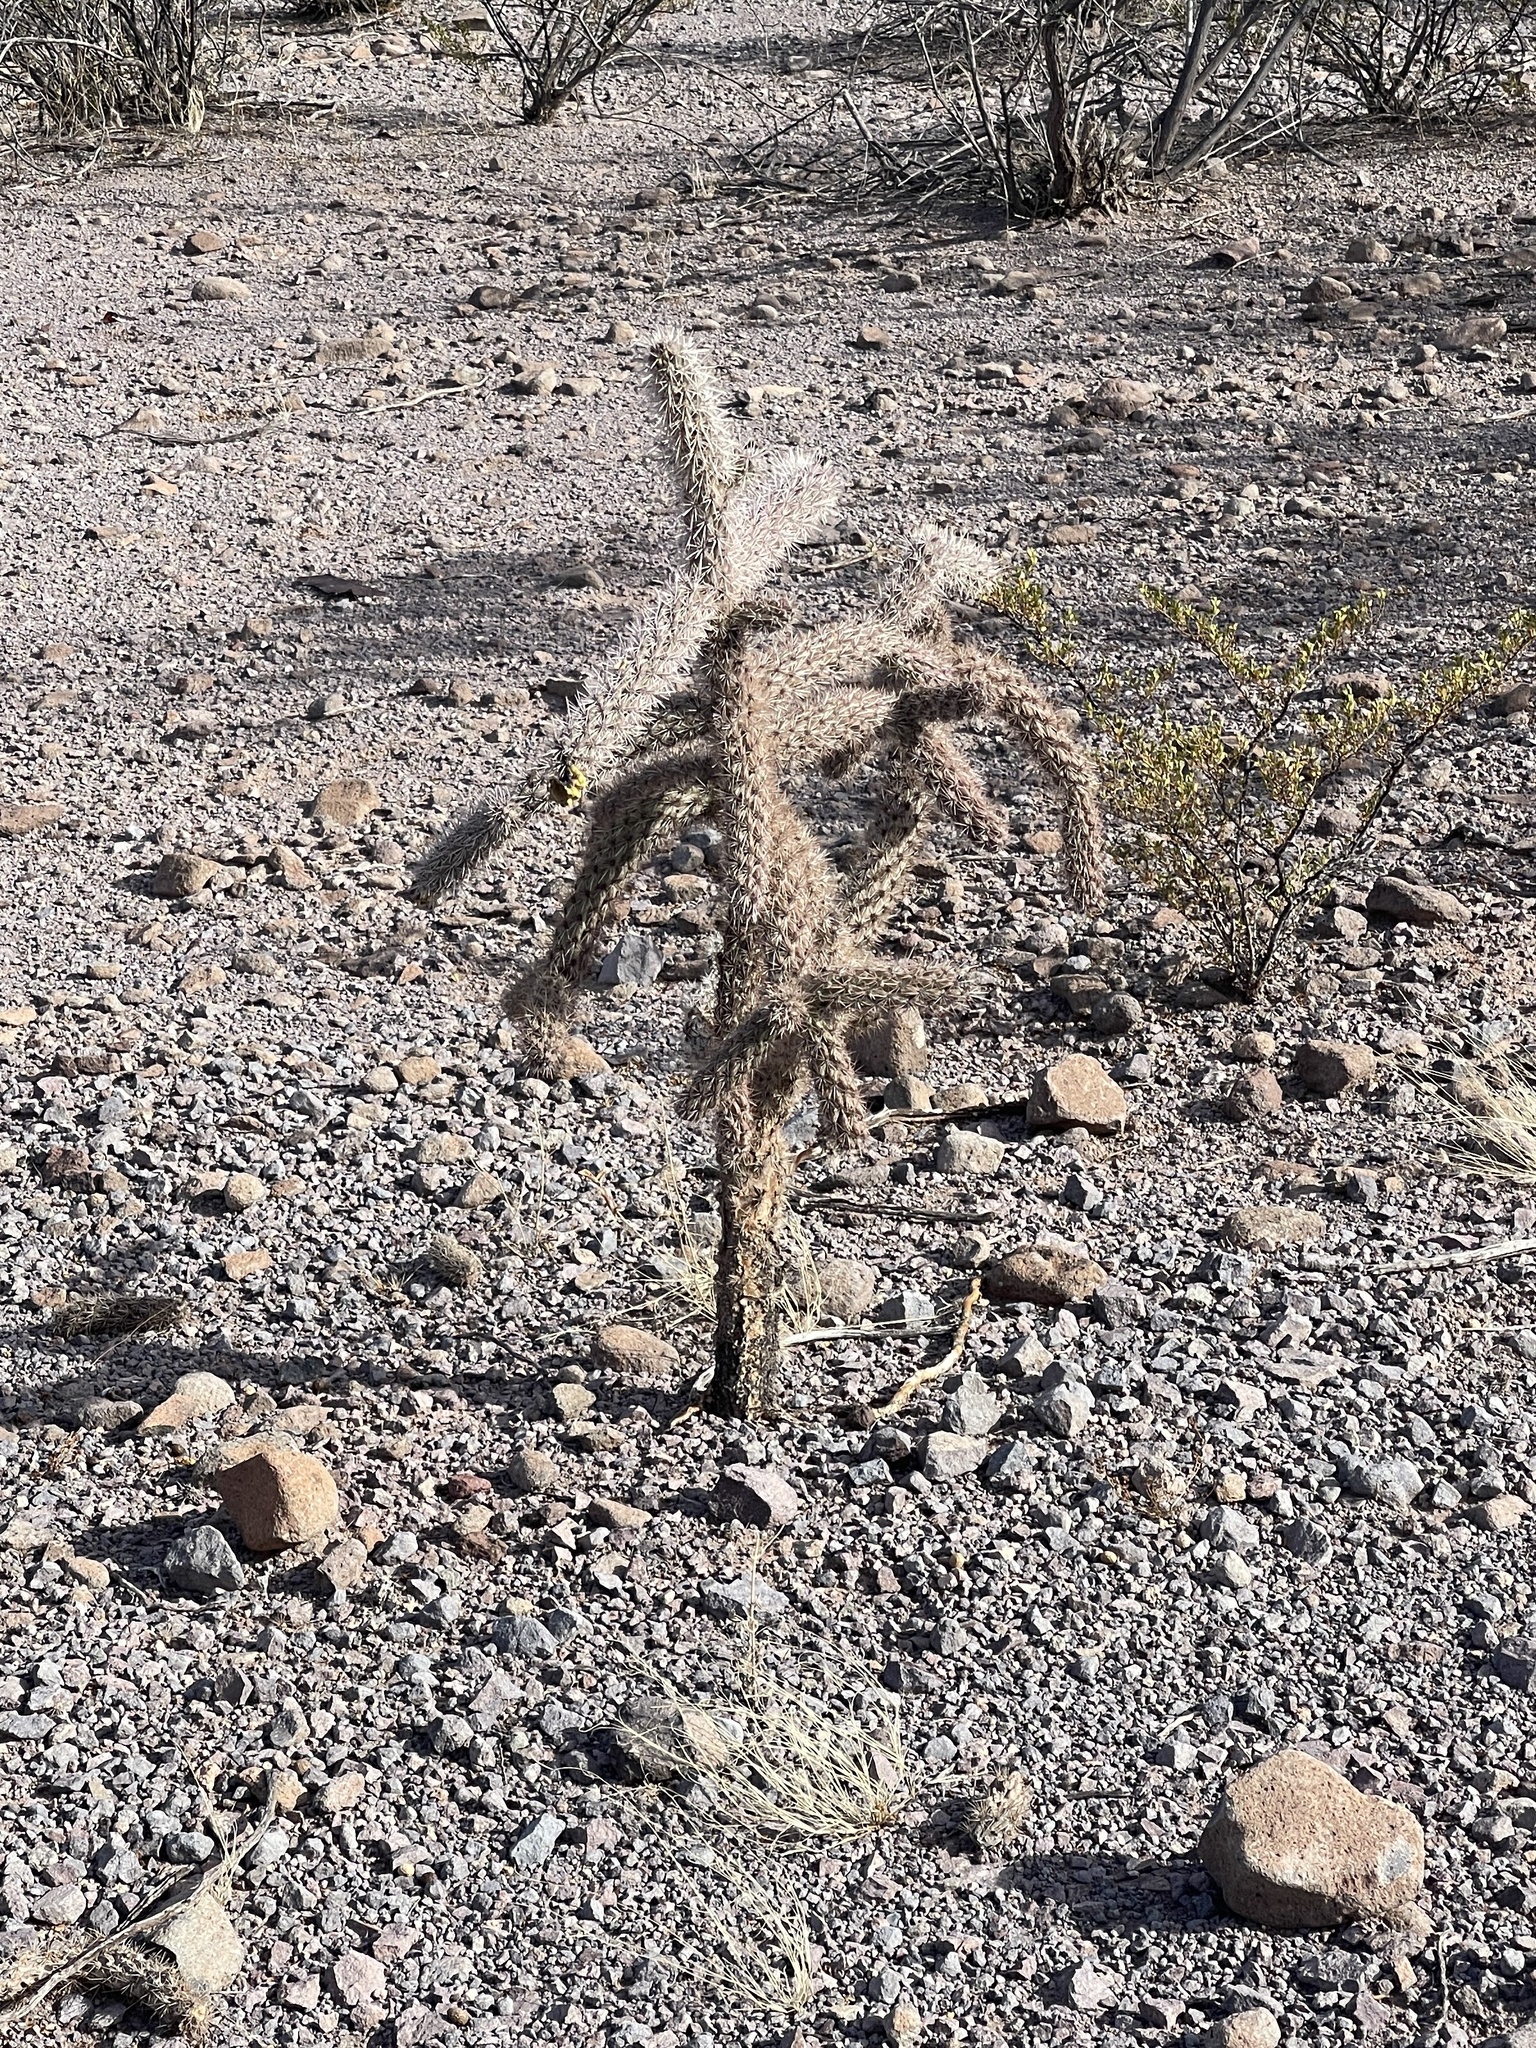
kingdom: Plantae
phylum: Tracheophyta
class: Magnoliopsida
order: Caryophyllales
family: Cactaceae
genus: Cylindropuntia
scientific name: Cylindropuntia imbricata
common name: Candelabrum cactus
